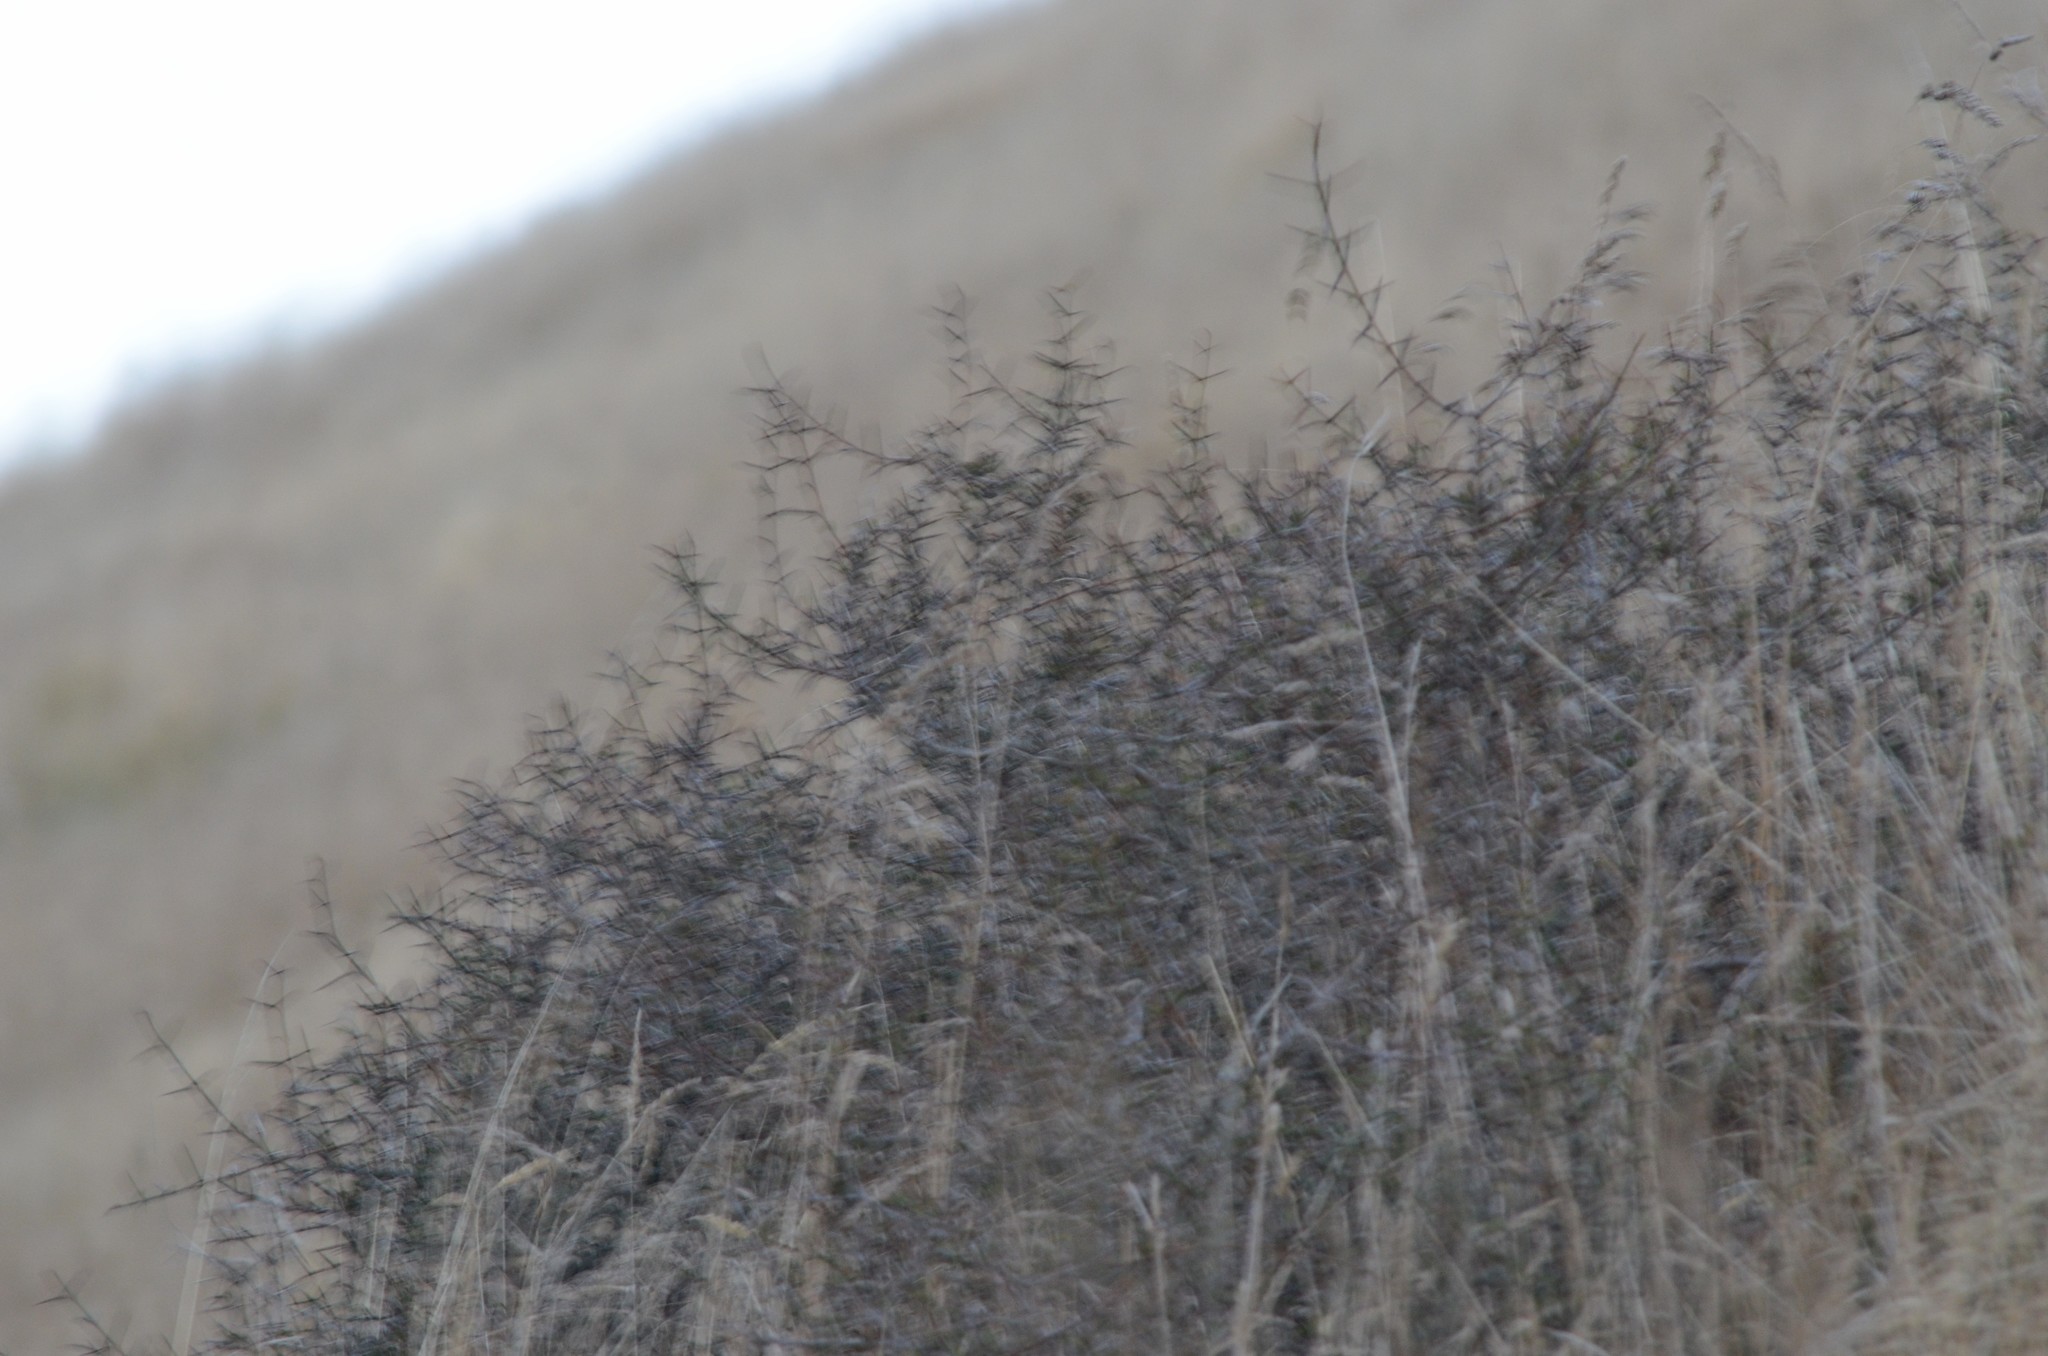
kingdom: Plantae
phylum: Tracheophyta
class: Magnoliopsida
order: Rosales
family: Rhamnaceae
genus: Discaria
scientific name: Discaria toumatou
